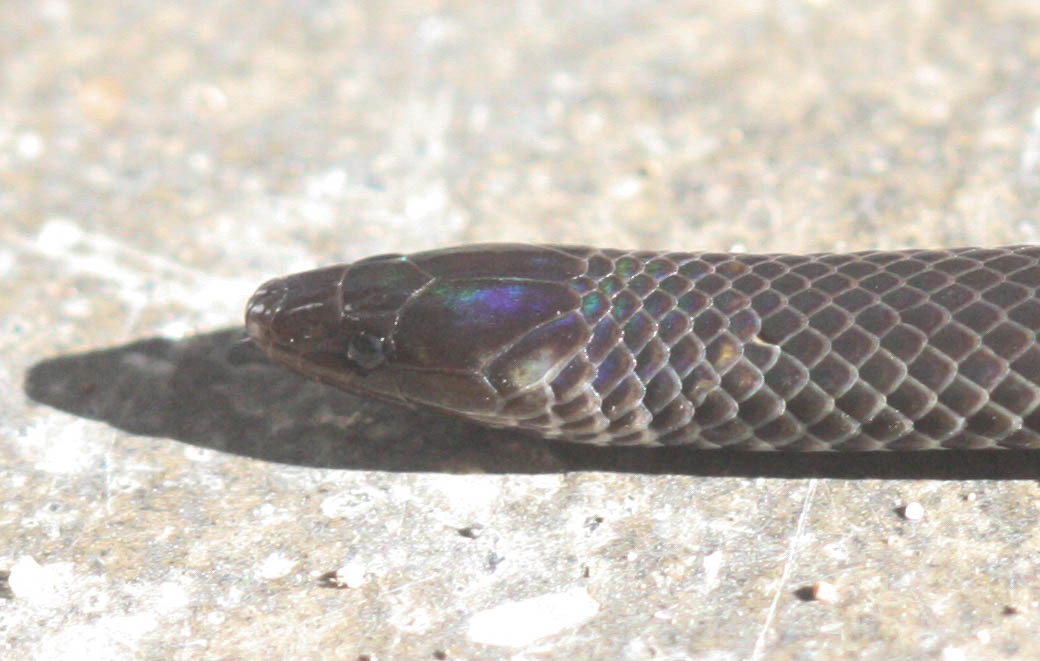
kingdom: Animalia
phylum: Chordata
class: Squamata
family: Colubridae
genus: Pseudorabdion
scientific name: Pseudorabdion longiceps
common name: Dwarf reed snake
